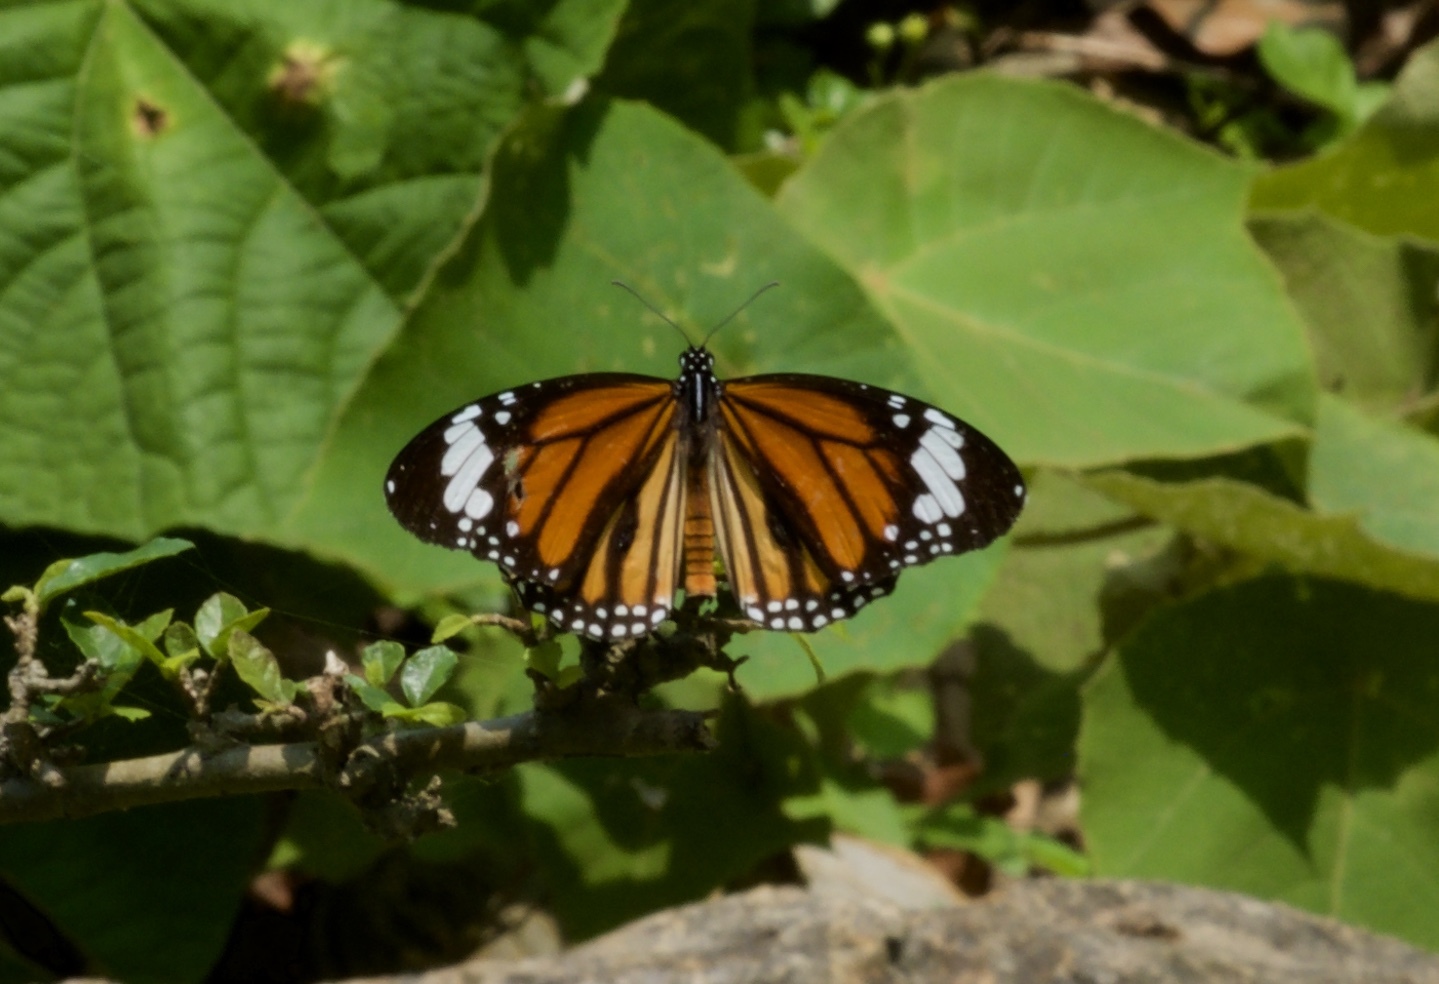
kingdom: Animalia
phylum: Arthropoda
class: Insecta
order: Lepidoptera
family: Nymphalidae
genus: Danaus
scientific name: Danaus genutia
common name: Common tiger butterfly
